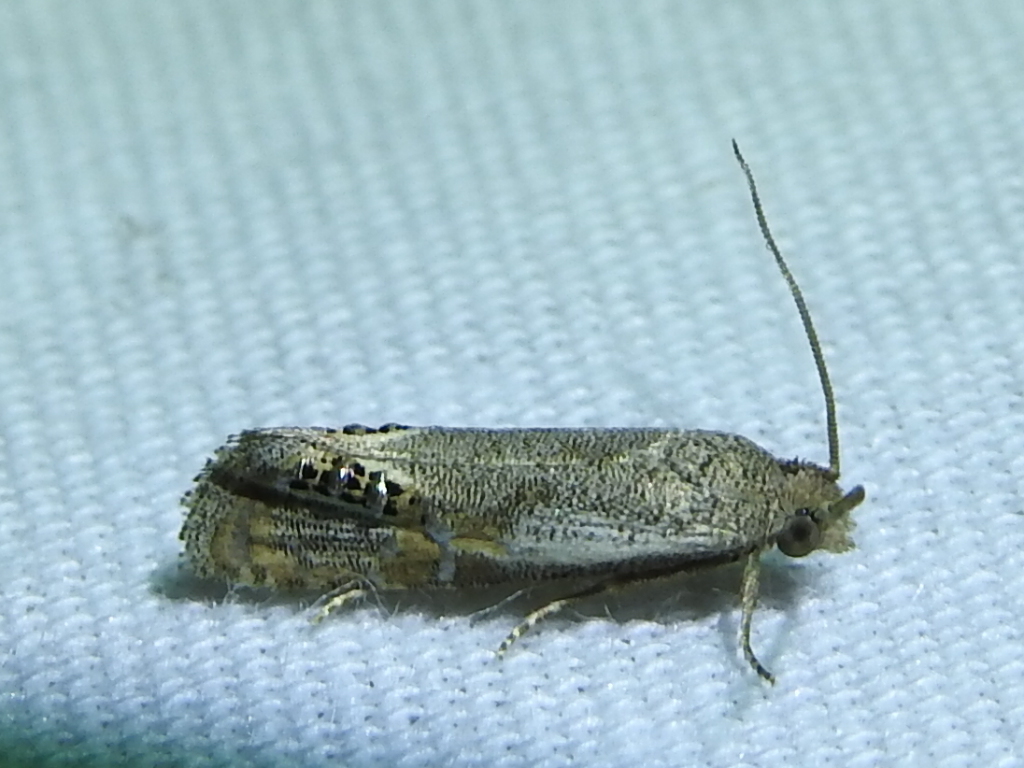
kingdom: Animalia
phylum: Arthropoda
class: Insecta
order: Lepidoptera
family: Tortricidae
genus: Pelochrista
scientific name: Pelochrista scintillana
